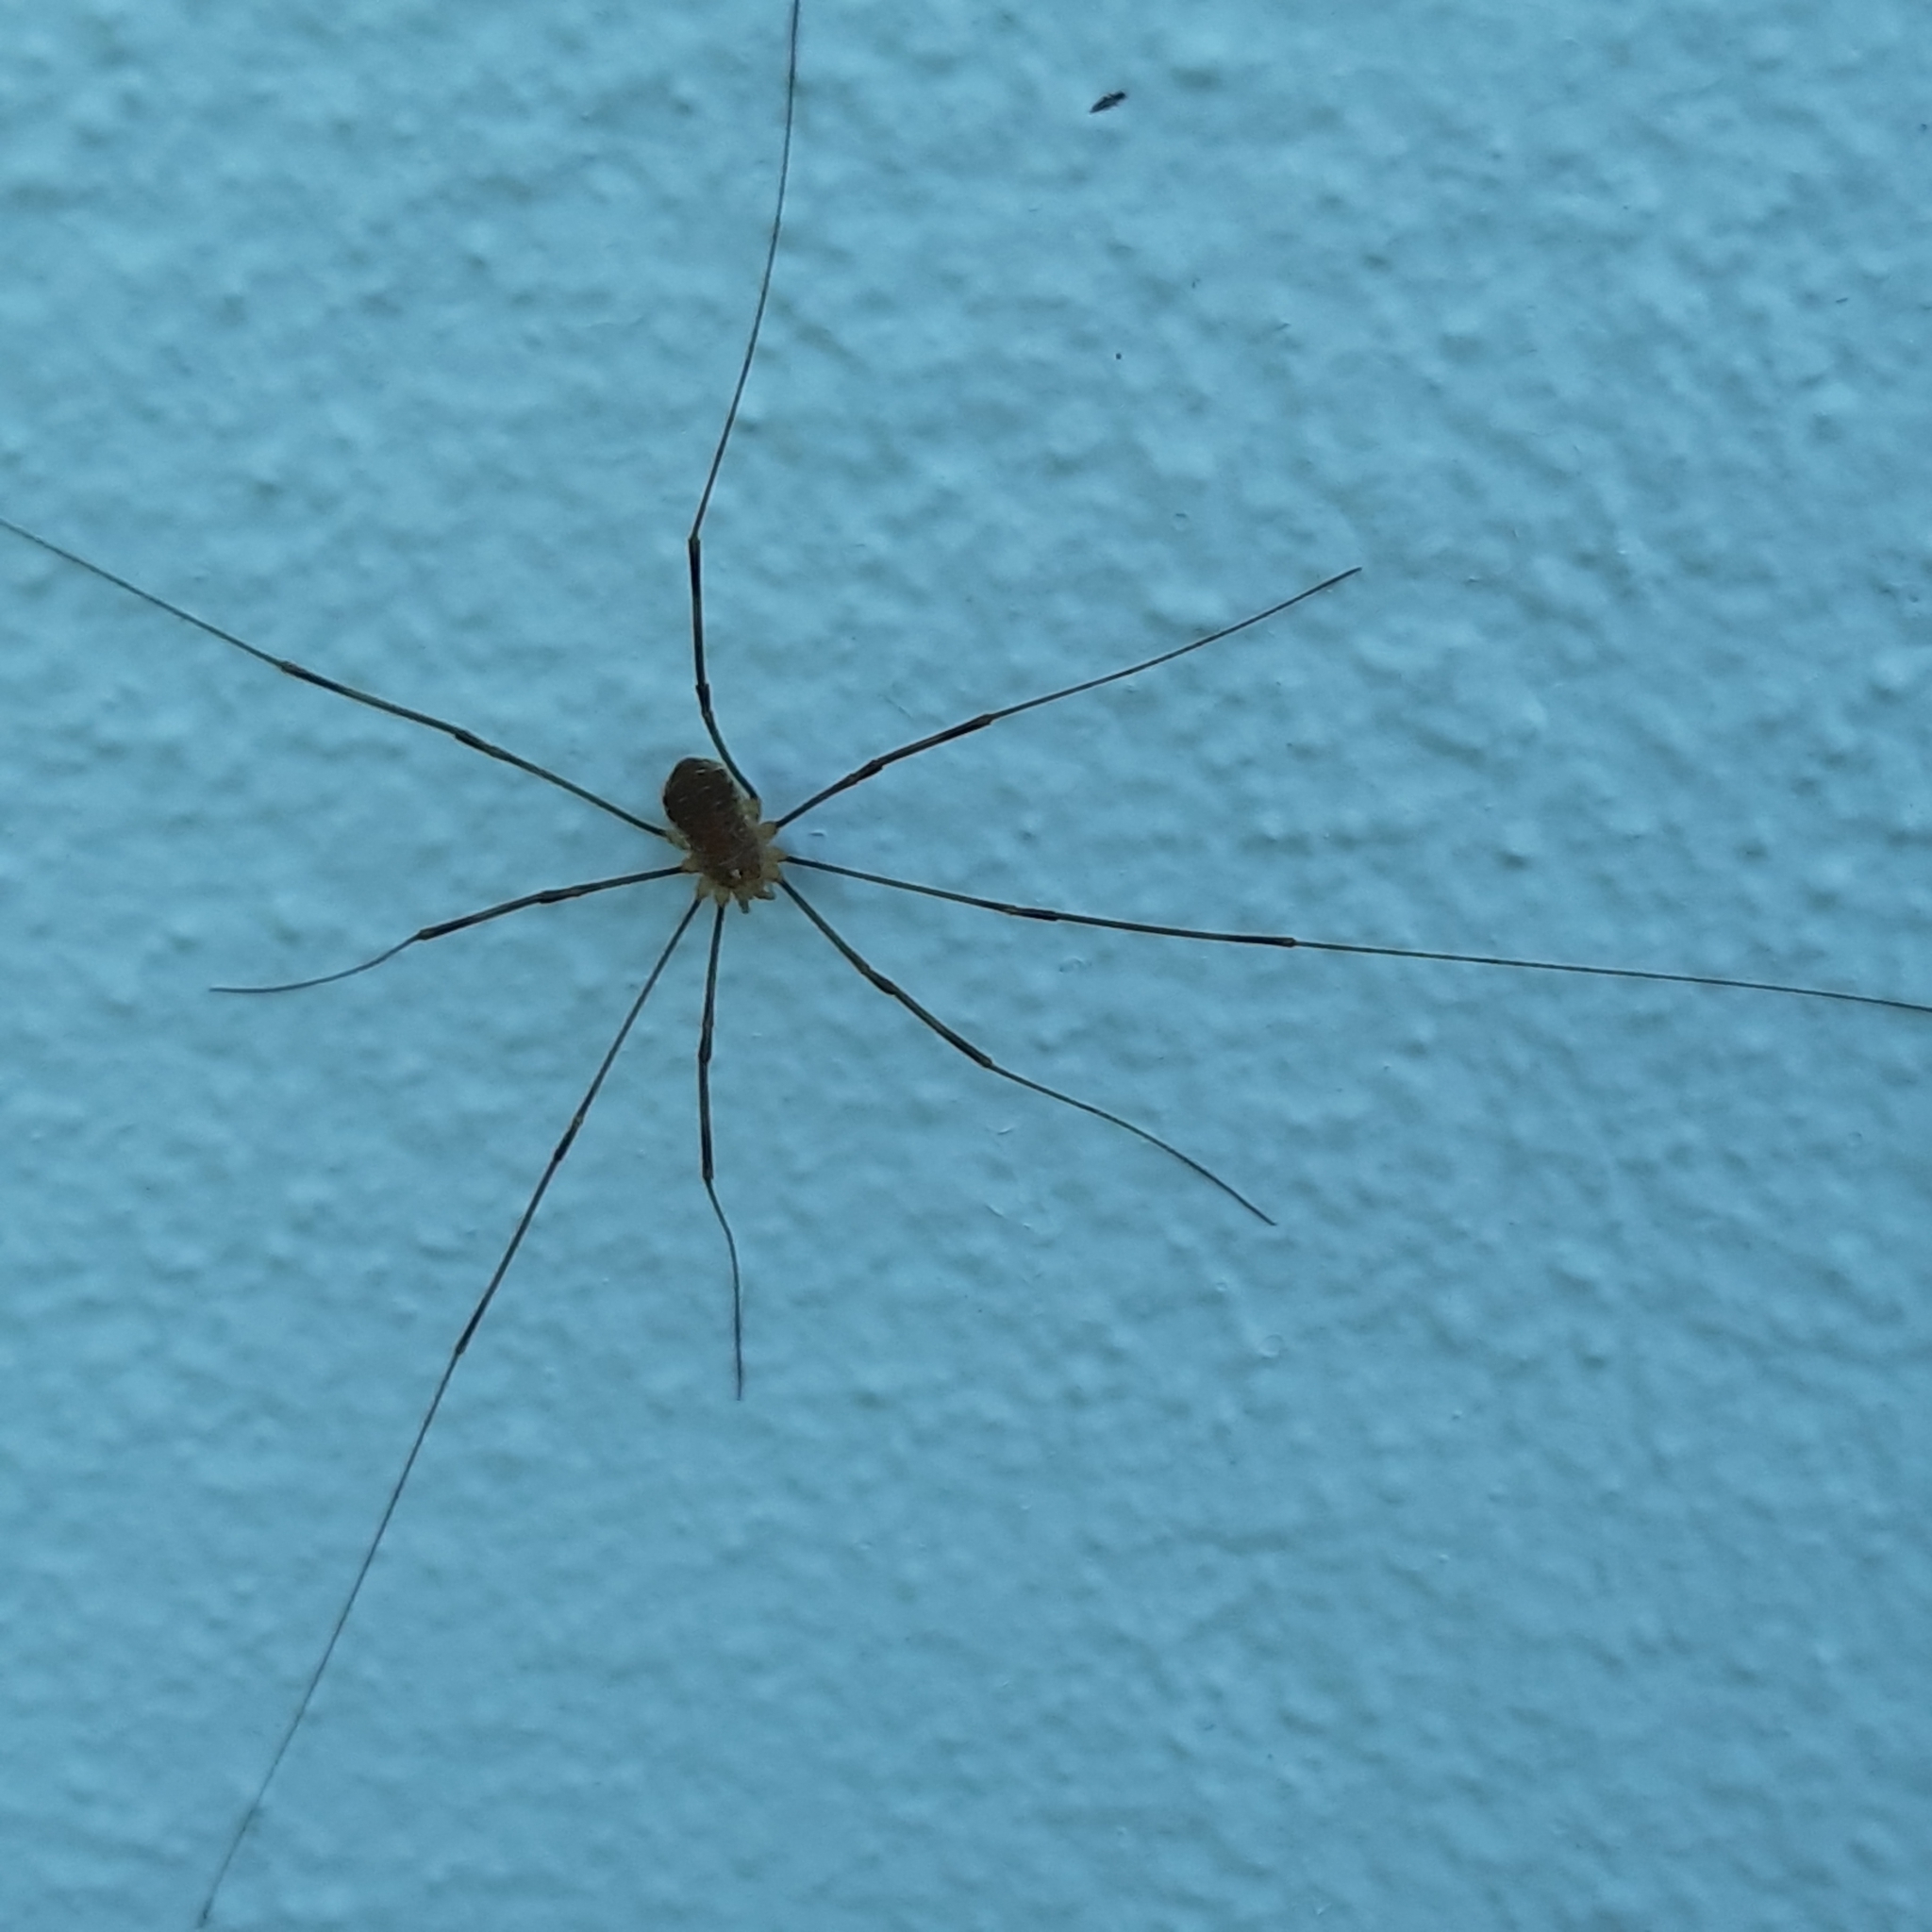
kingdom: Animalia
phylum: Arthropoda
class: Arachnida
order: Opiliones
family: Phalangiidae
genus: Opilio
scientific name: Opilio canestrinii
